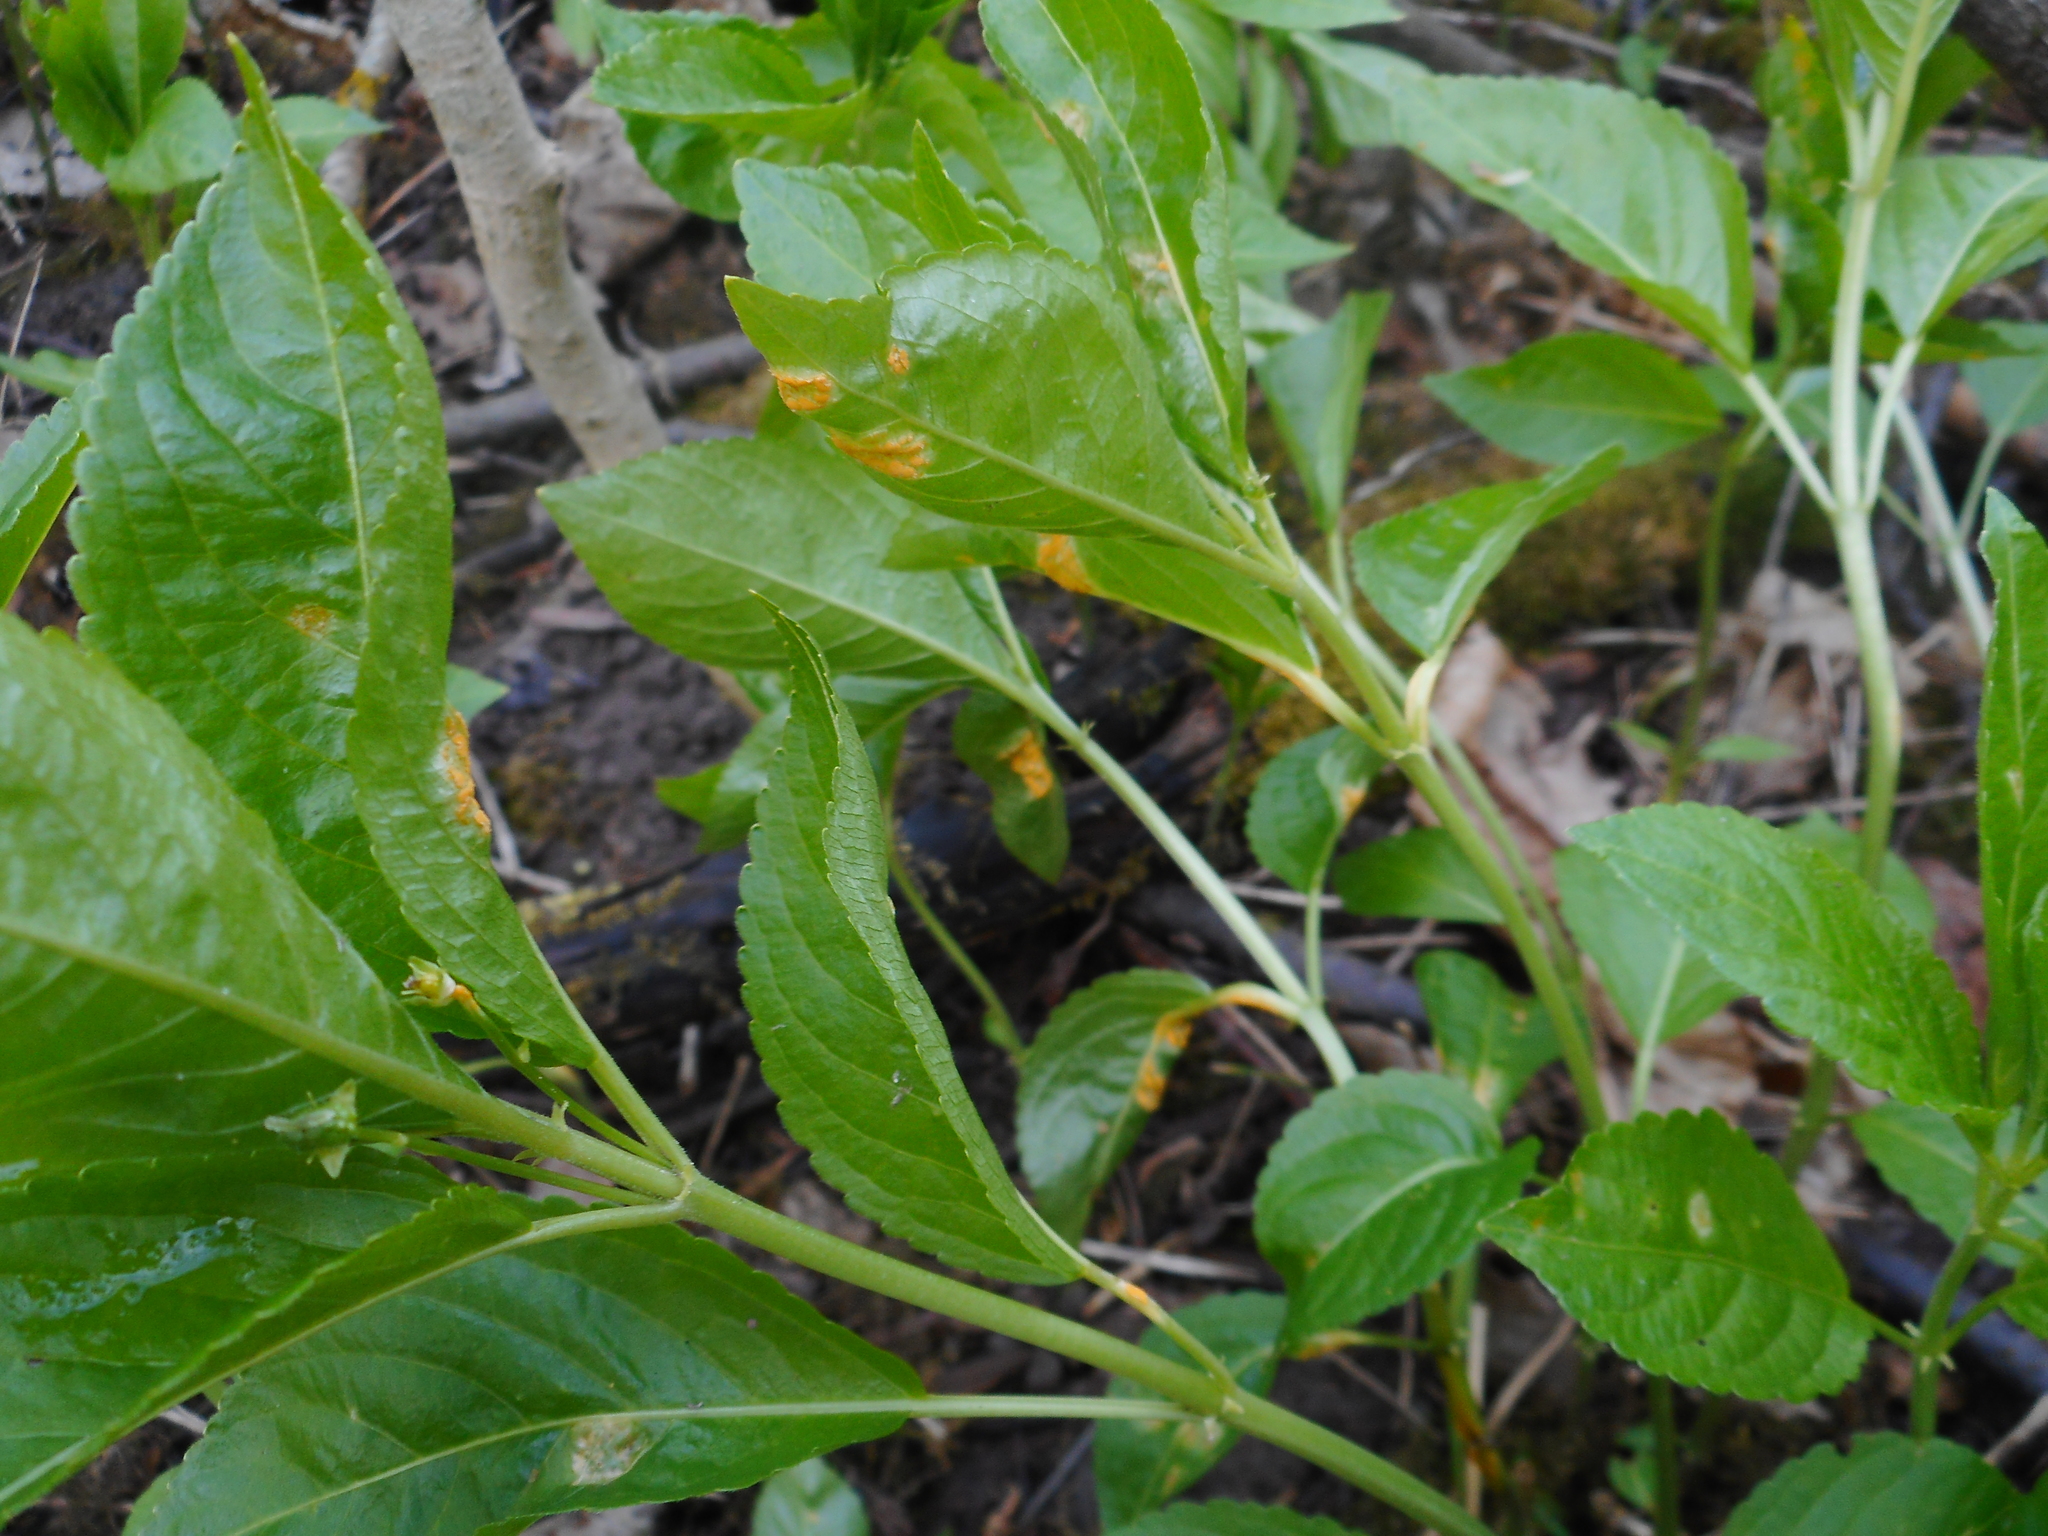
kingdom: Fungi
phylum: Basidiomycota
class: Pucciniomycetes
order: Pucciniales
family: Melampsoraceae
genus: Melampsora
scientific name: Melampsora rostrupii
